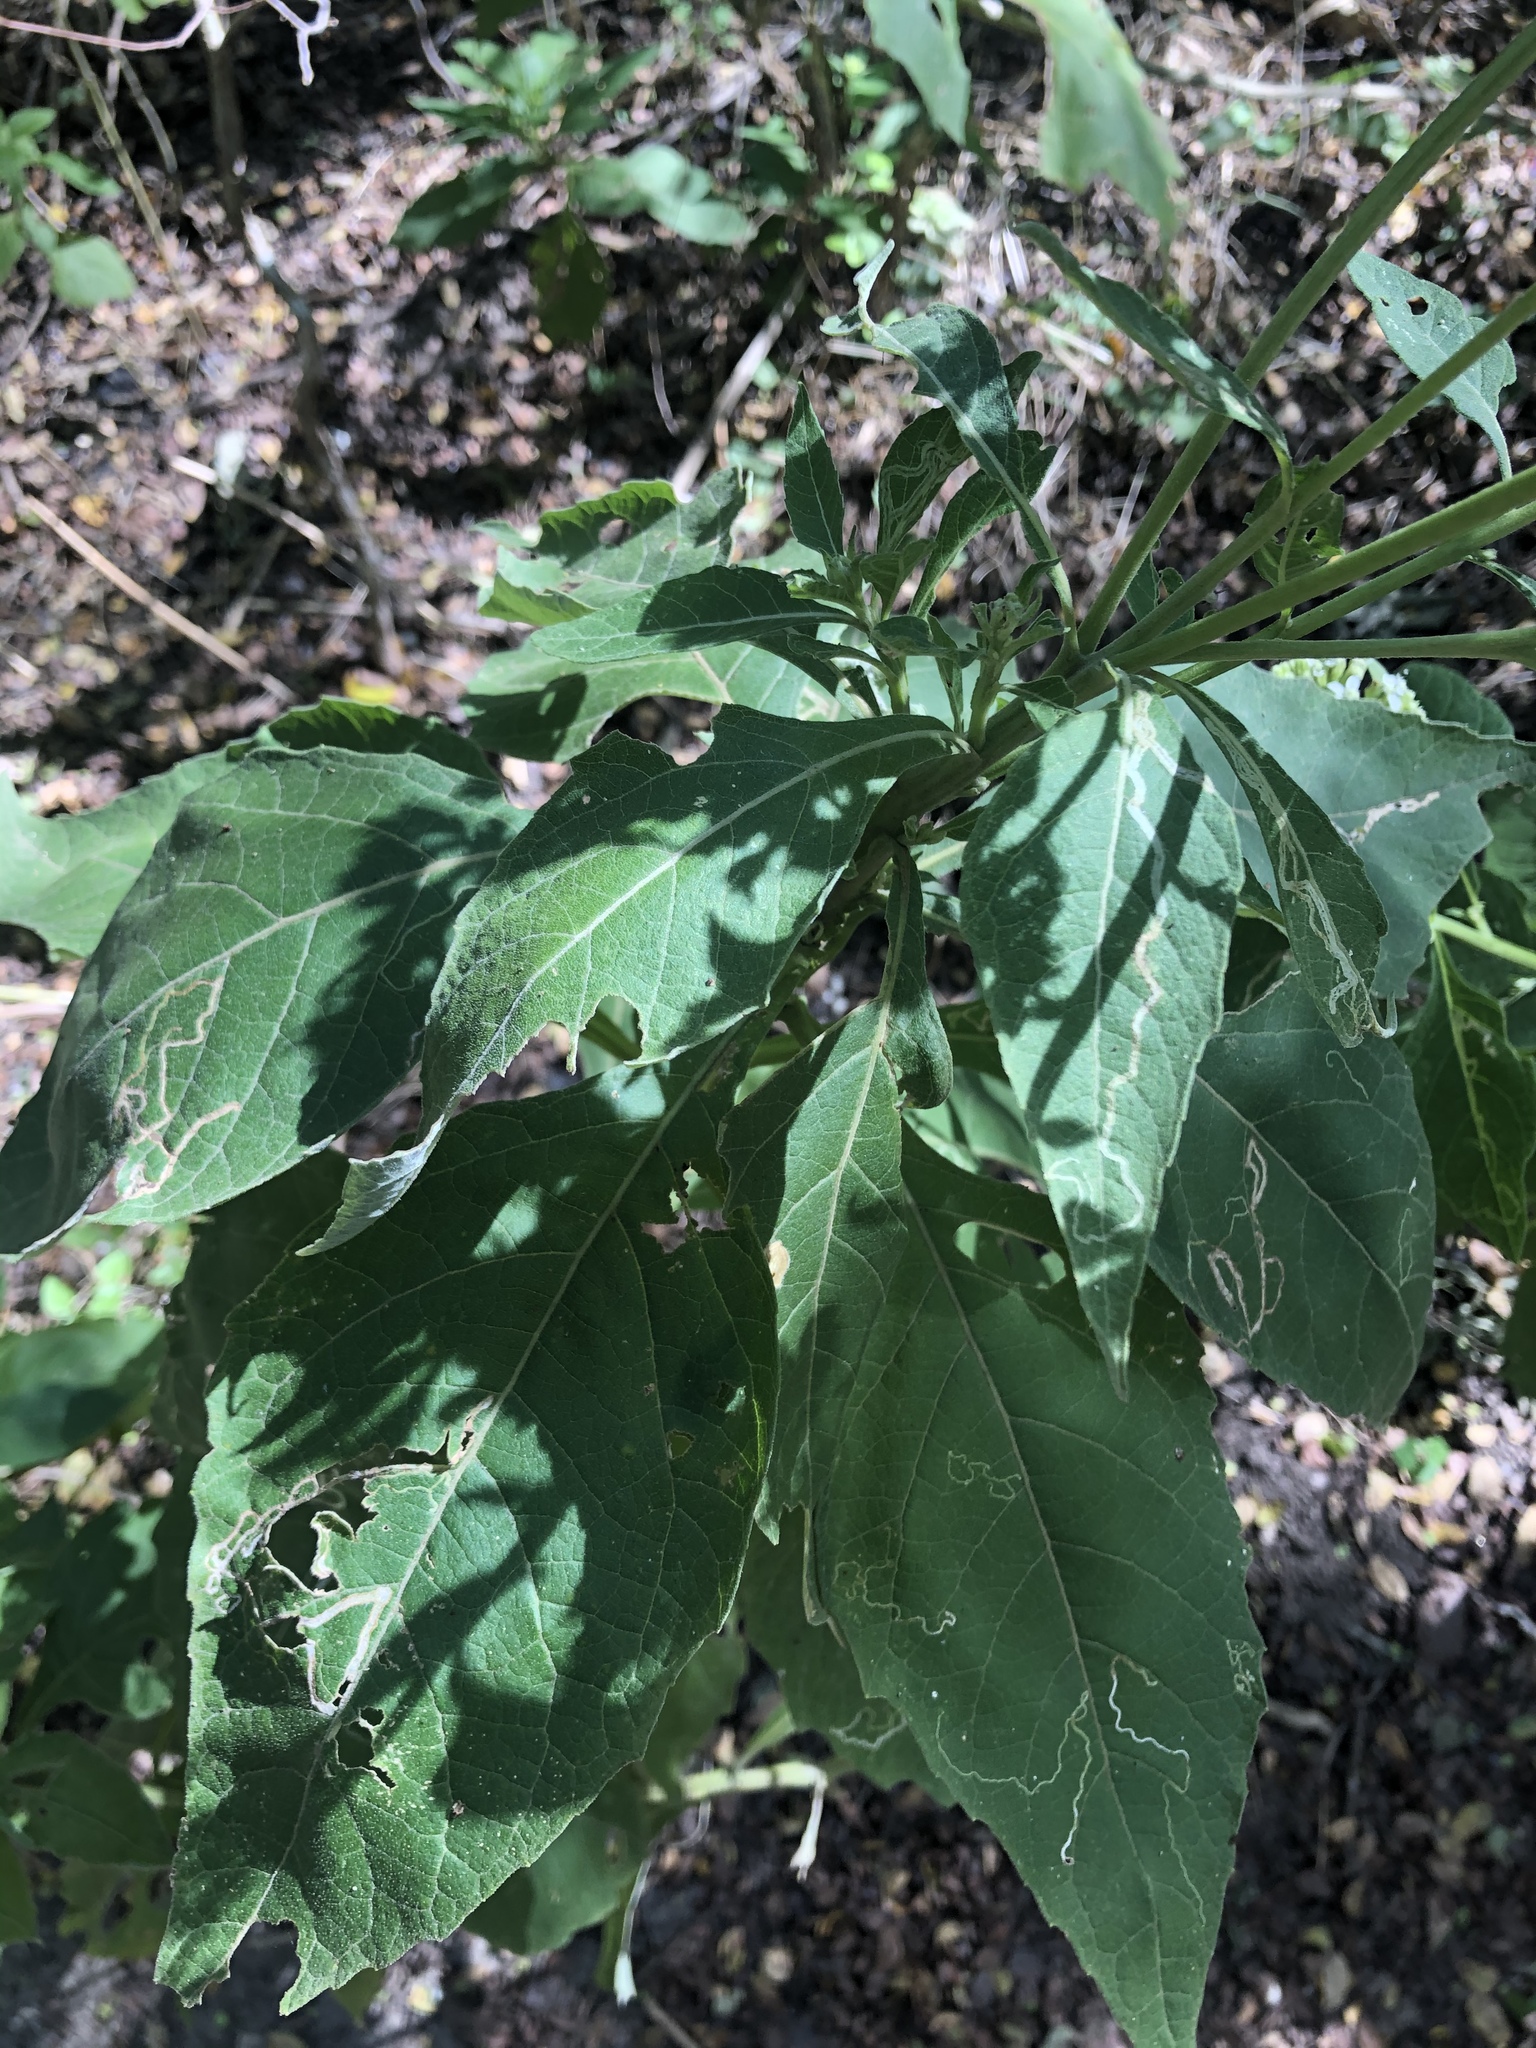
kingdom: Plantae
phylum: Tracheophyta
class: Magnoliopsida
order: Asterales
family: Asteraceae
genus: Verbesina
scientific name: Verbesina virginica
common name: Frostweed
